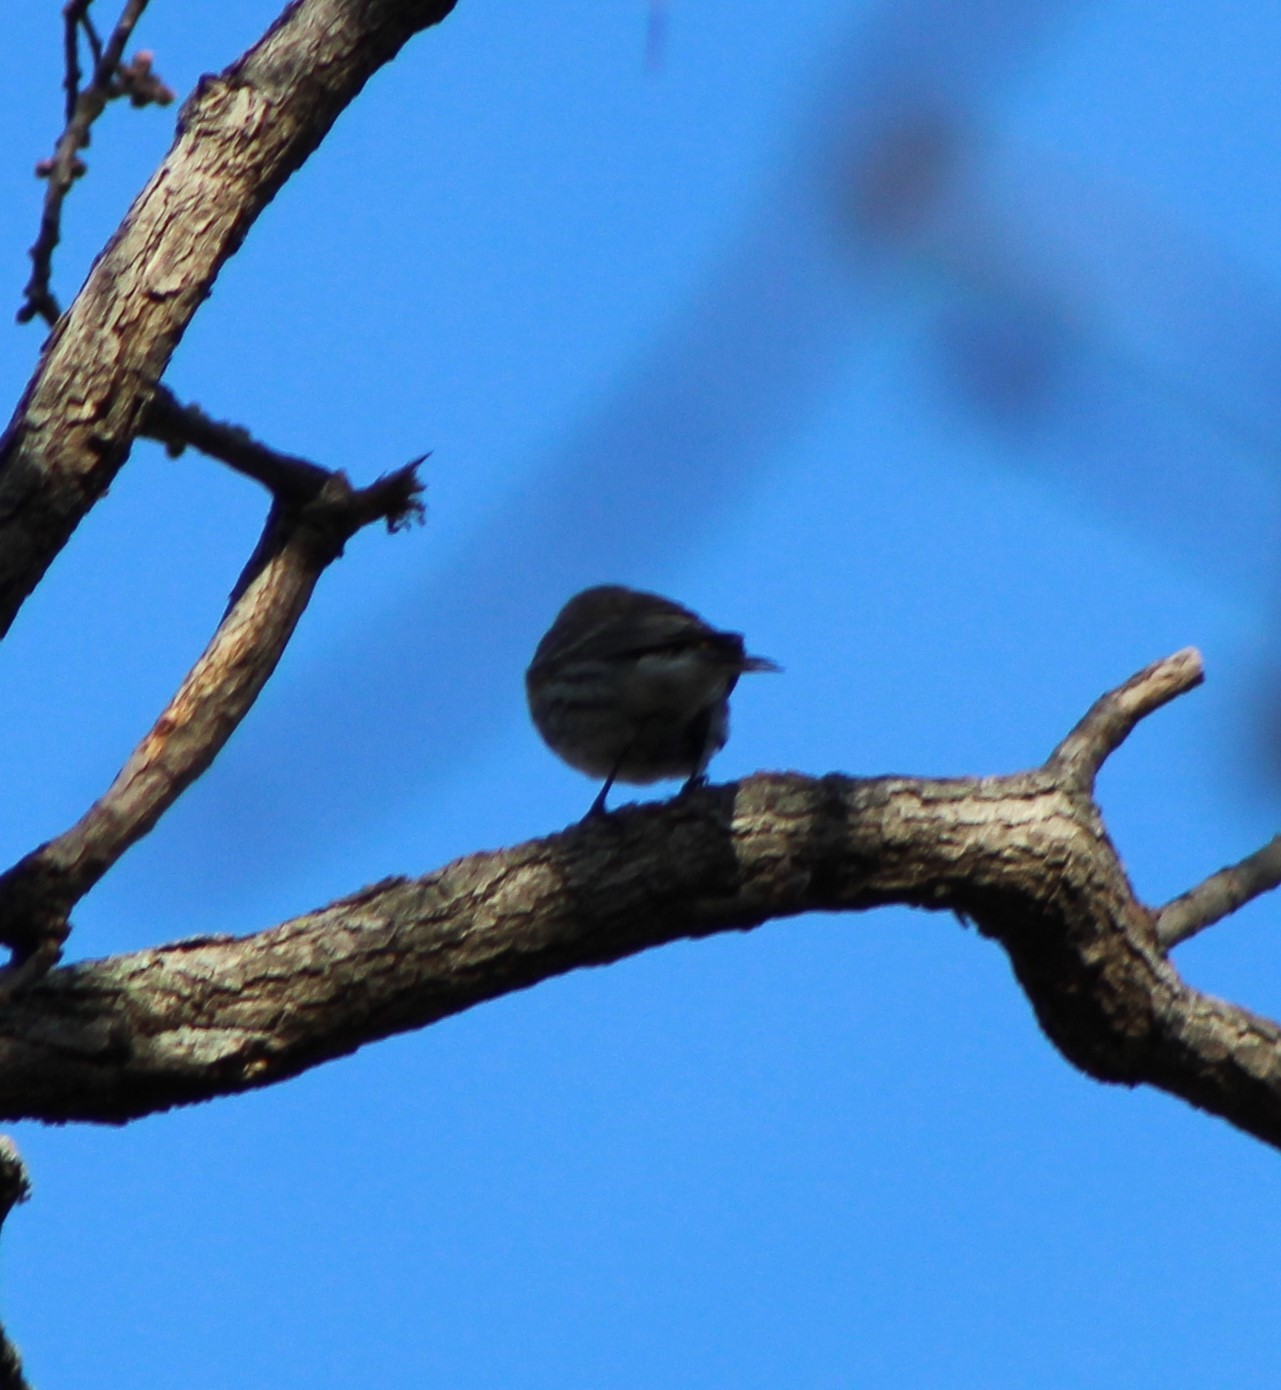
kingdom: Animalia
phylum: Chordata
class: Aves
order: Passeriformes
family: Parulidae
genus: Setophaga
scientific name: Setophaga coronata
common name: Myrtle warbler
